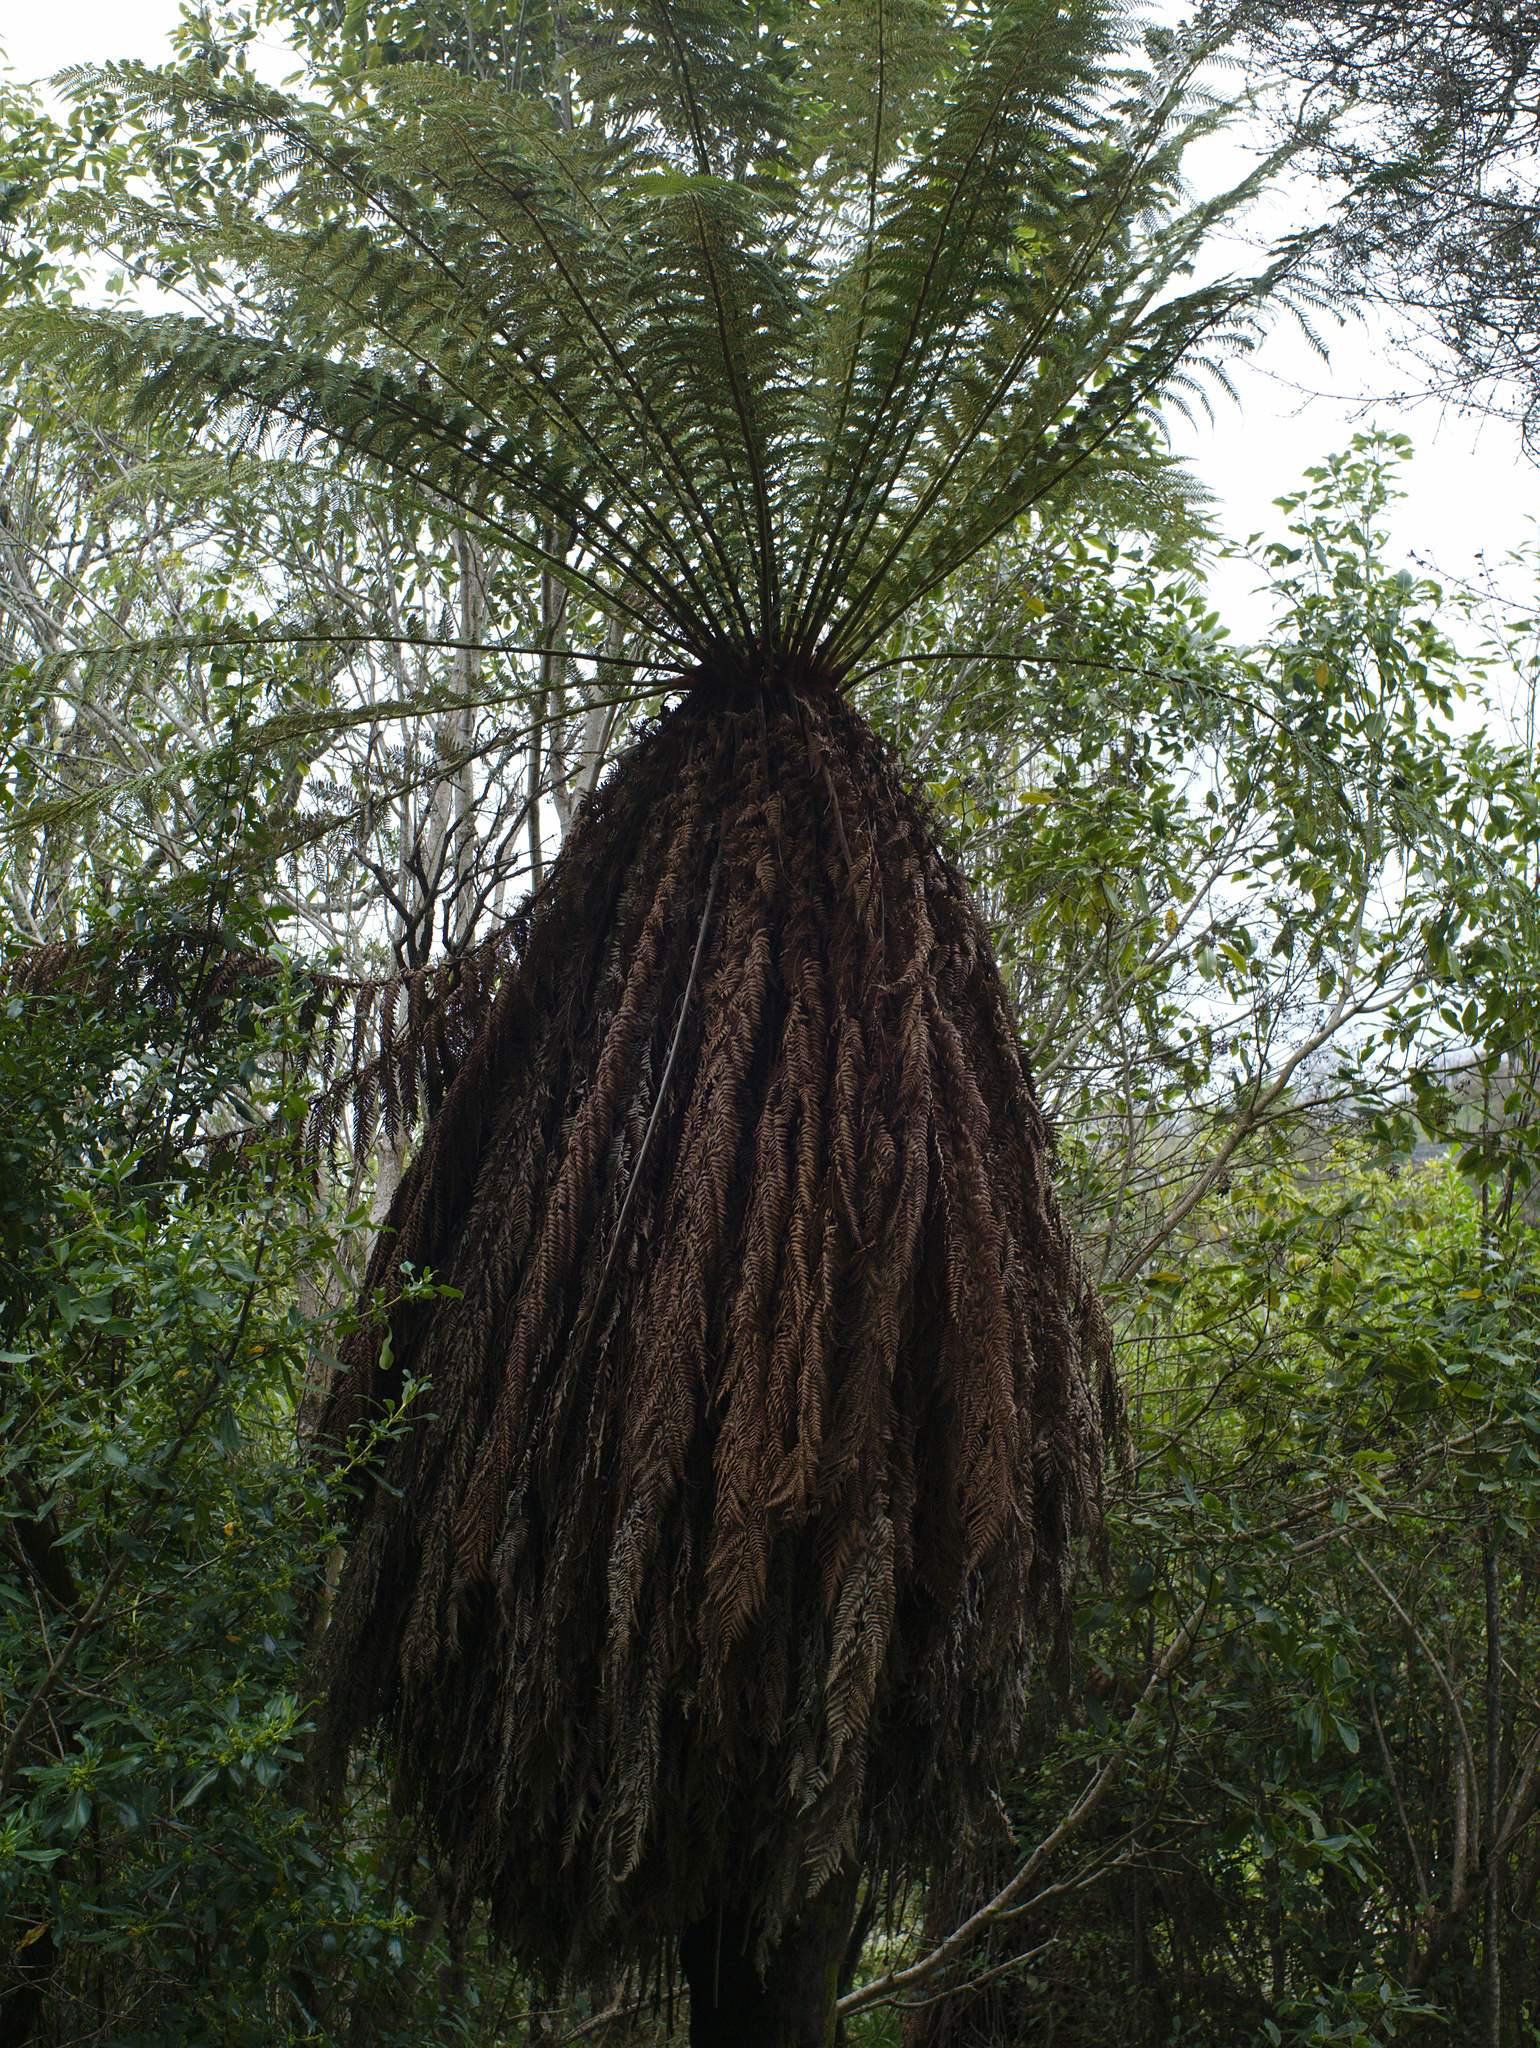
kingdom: Plantae
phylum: Tracheophyta
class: Polypodiopsida
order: Cyatheales
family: Dicksoniaceae
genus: Dicksonia
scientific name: Dicksonia fibrosa
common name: Golden tree fern
